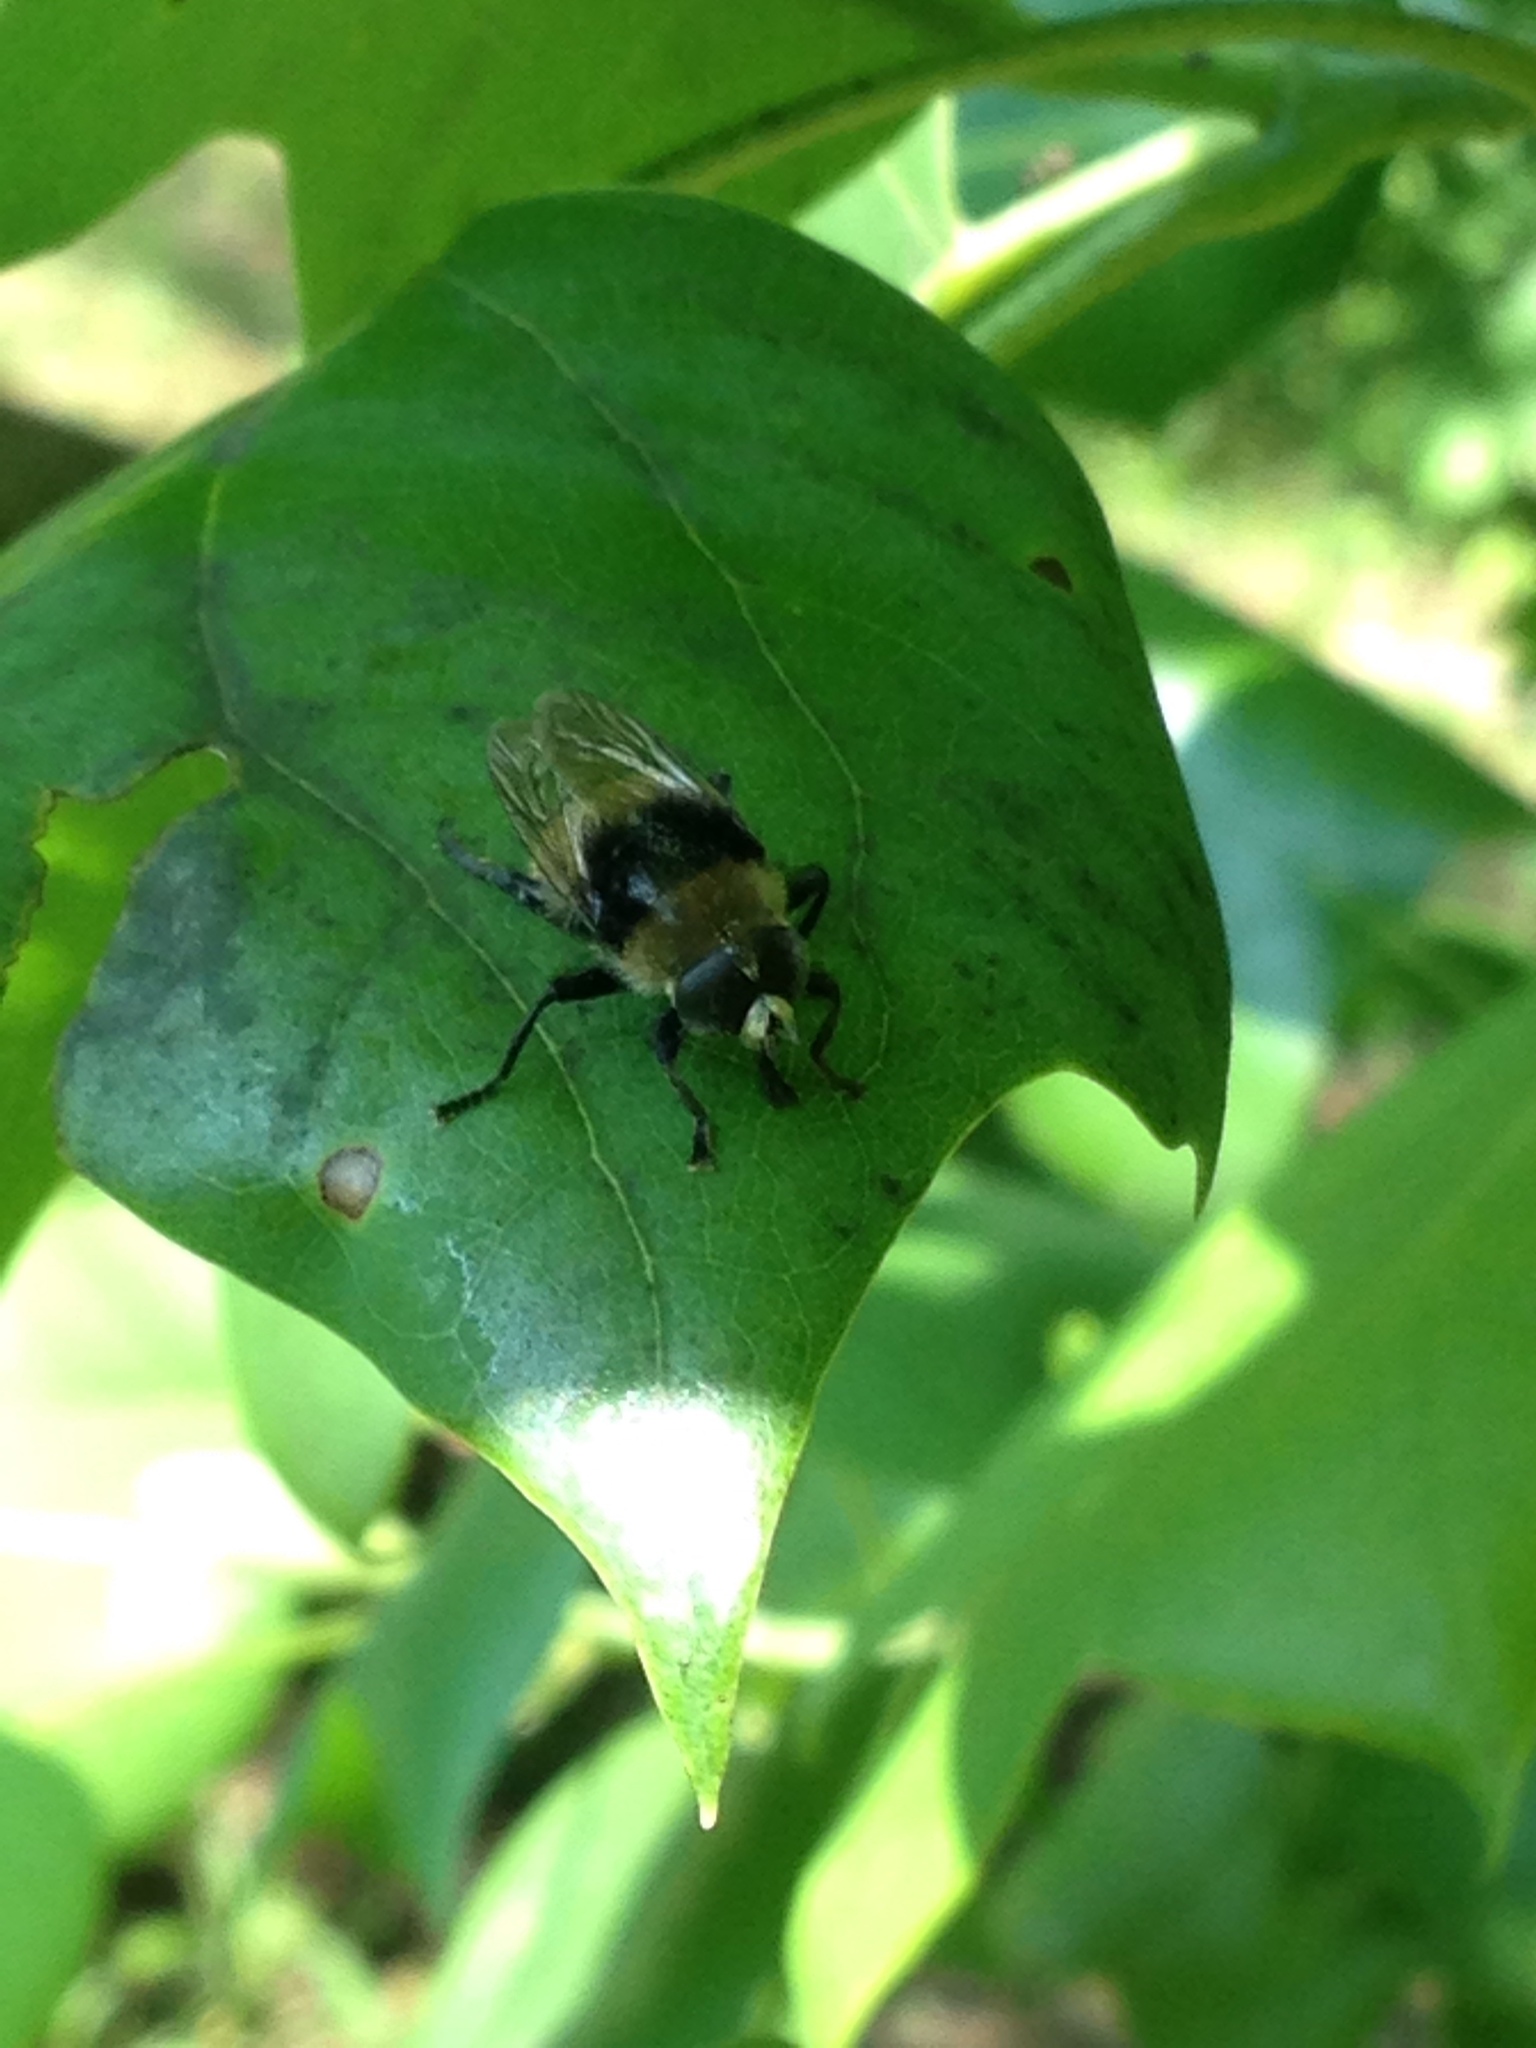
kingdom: Animalia
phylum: Arthropoda
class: Insecta
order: Diptera
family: Syrphidae
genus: Merodon
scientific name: Merodon equestris
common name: Greater bulb-fly
